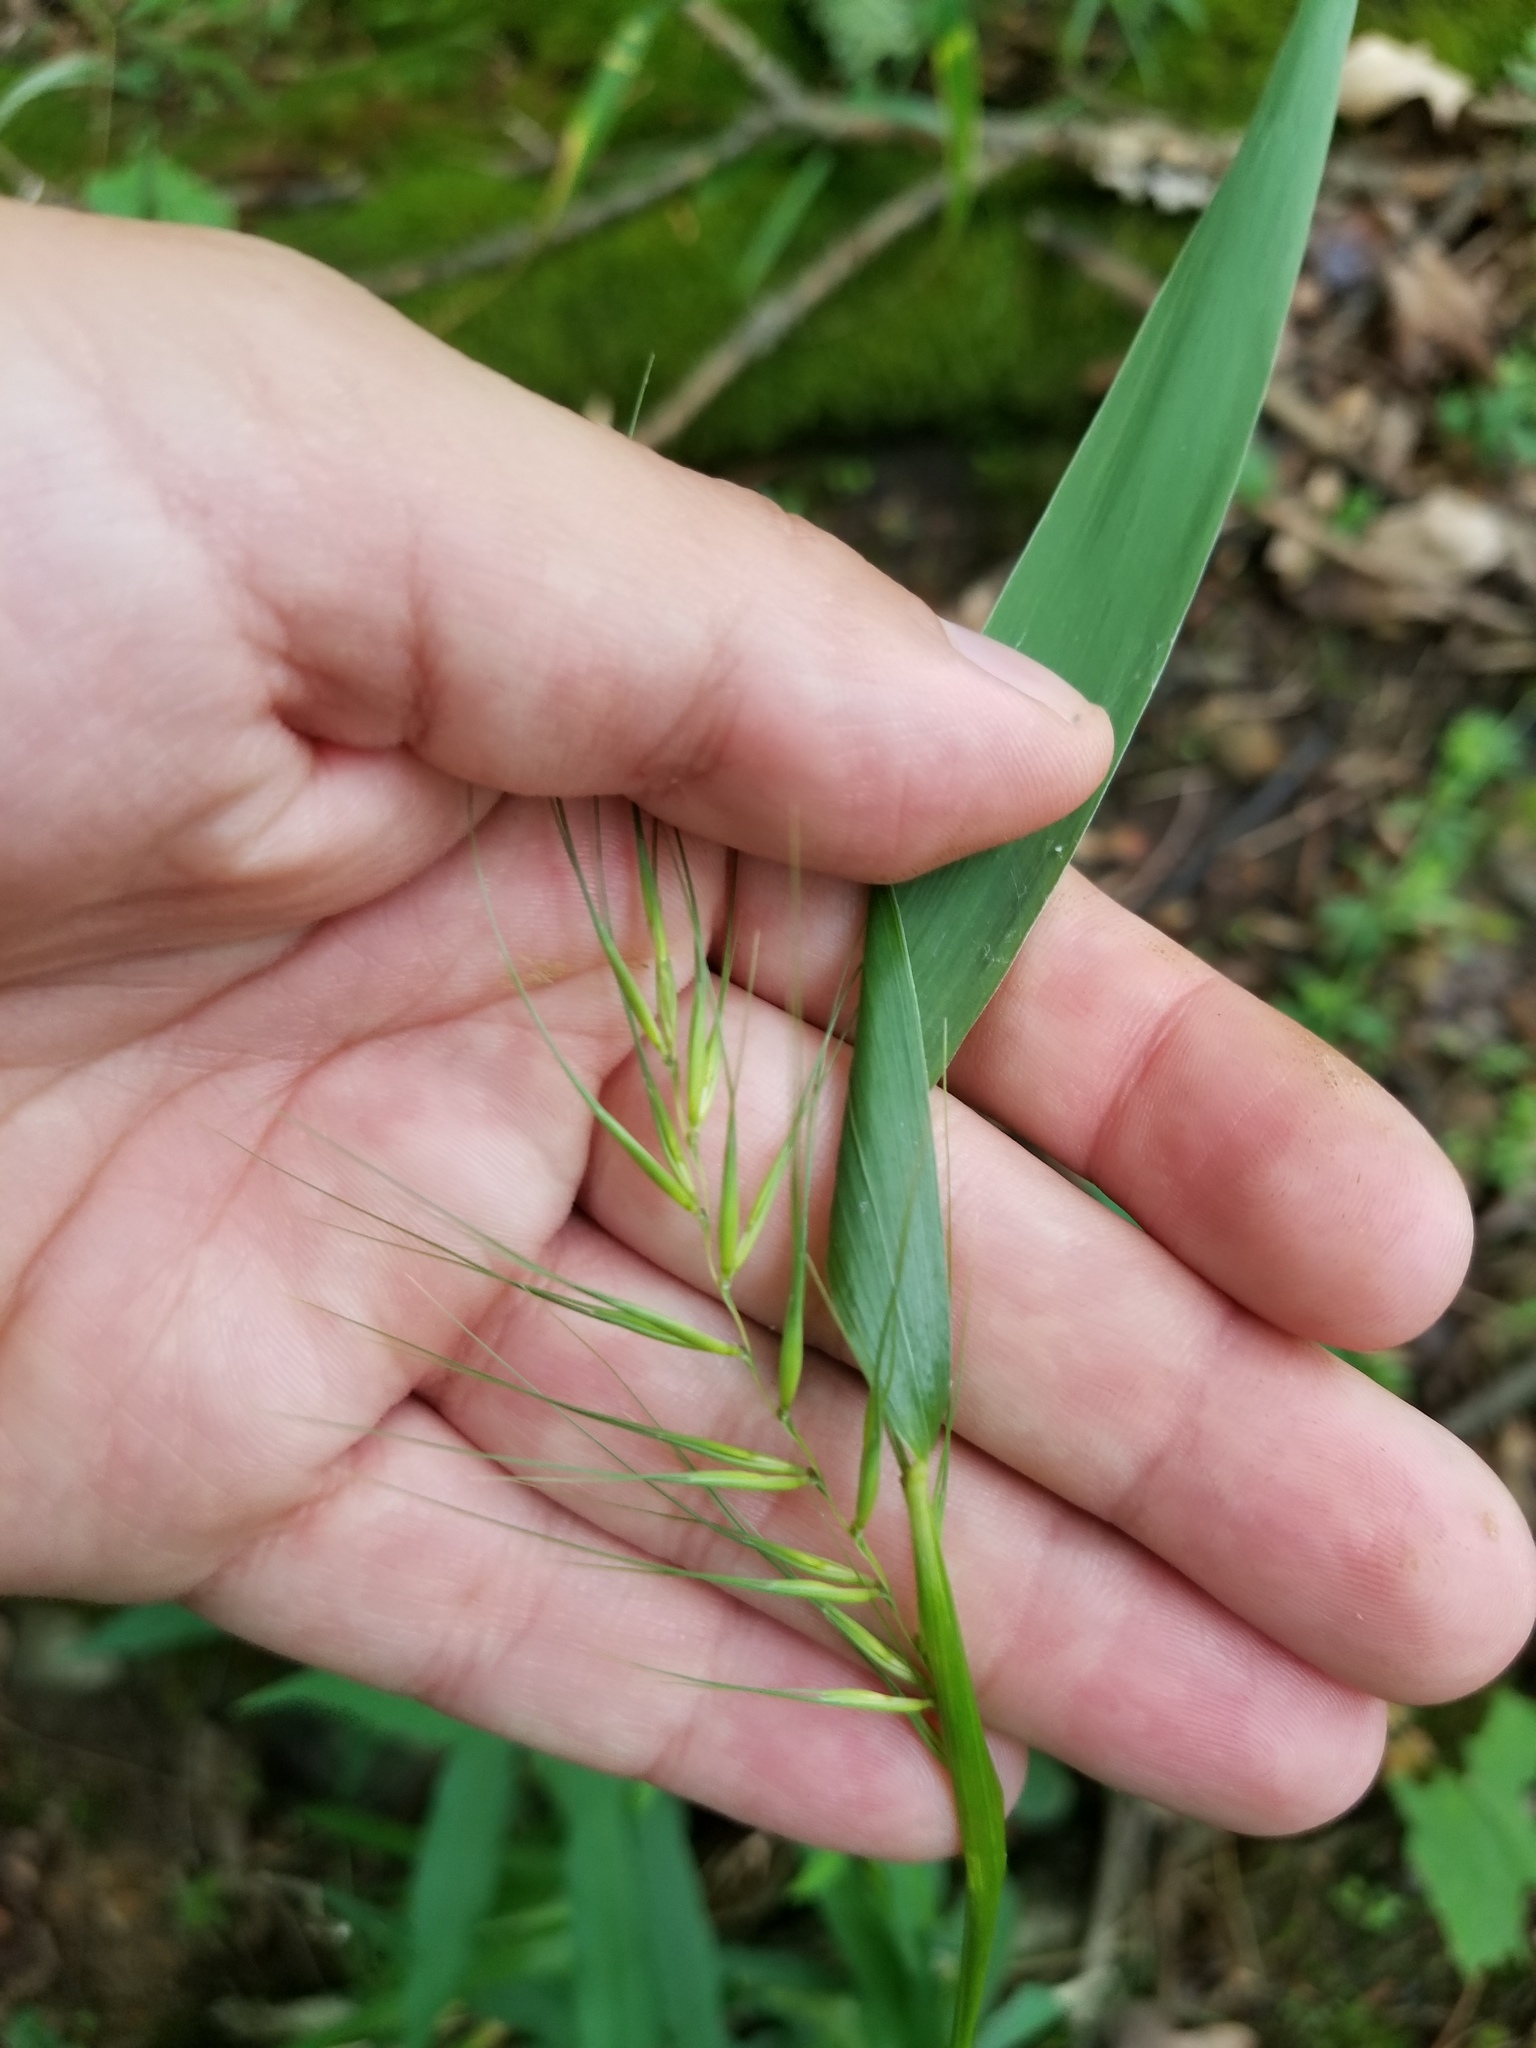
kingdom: Plantae
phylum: Tracheophyta
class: Liliopsida
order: Poales
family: Poaceae
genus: Elymus
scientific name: Elymus hystrix
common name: Bottlebrush grass
